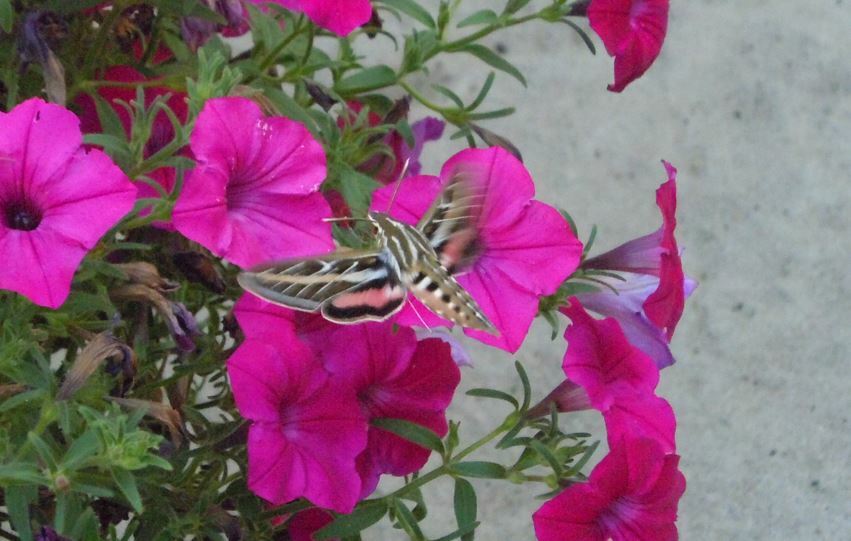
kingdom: Animalia
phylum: Arthropoda
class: Insecta
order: Lepidoptera
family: Sphingidae
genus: Hyles
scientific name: Hyles lineata
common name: White-lined sphinx
